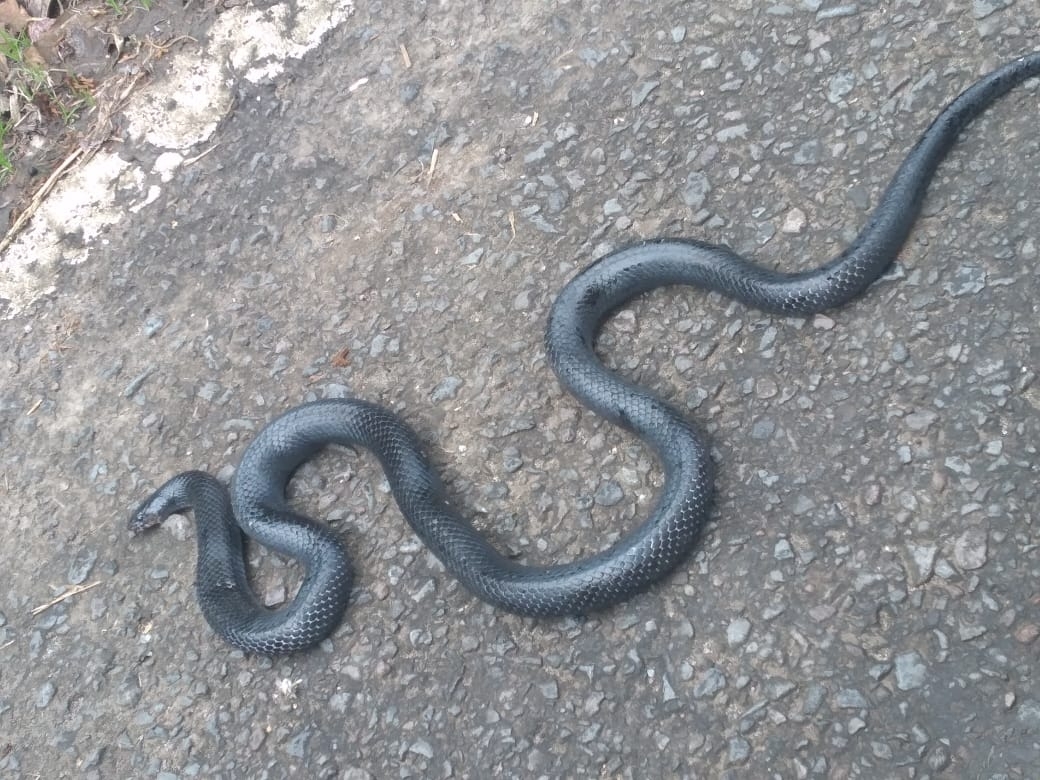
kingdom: Animalia
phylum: Chordata
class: Squamata
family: Colubridae
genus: Lampropeltis
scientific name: Lampropeltis micropholis
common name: Ecuadorian milksnake
